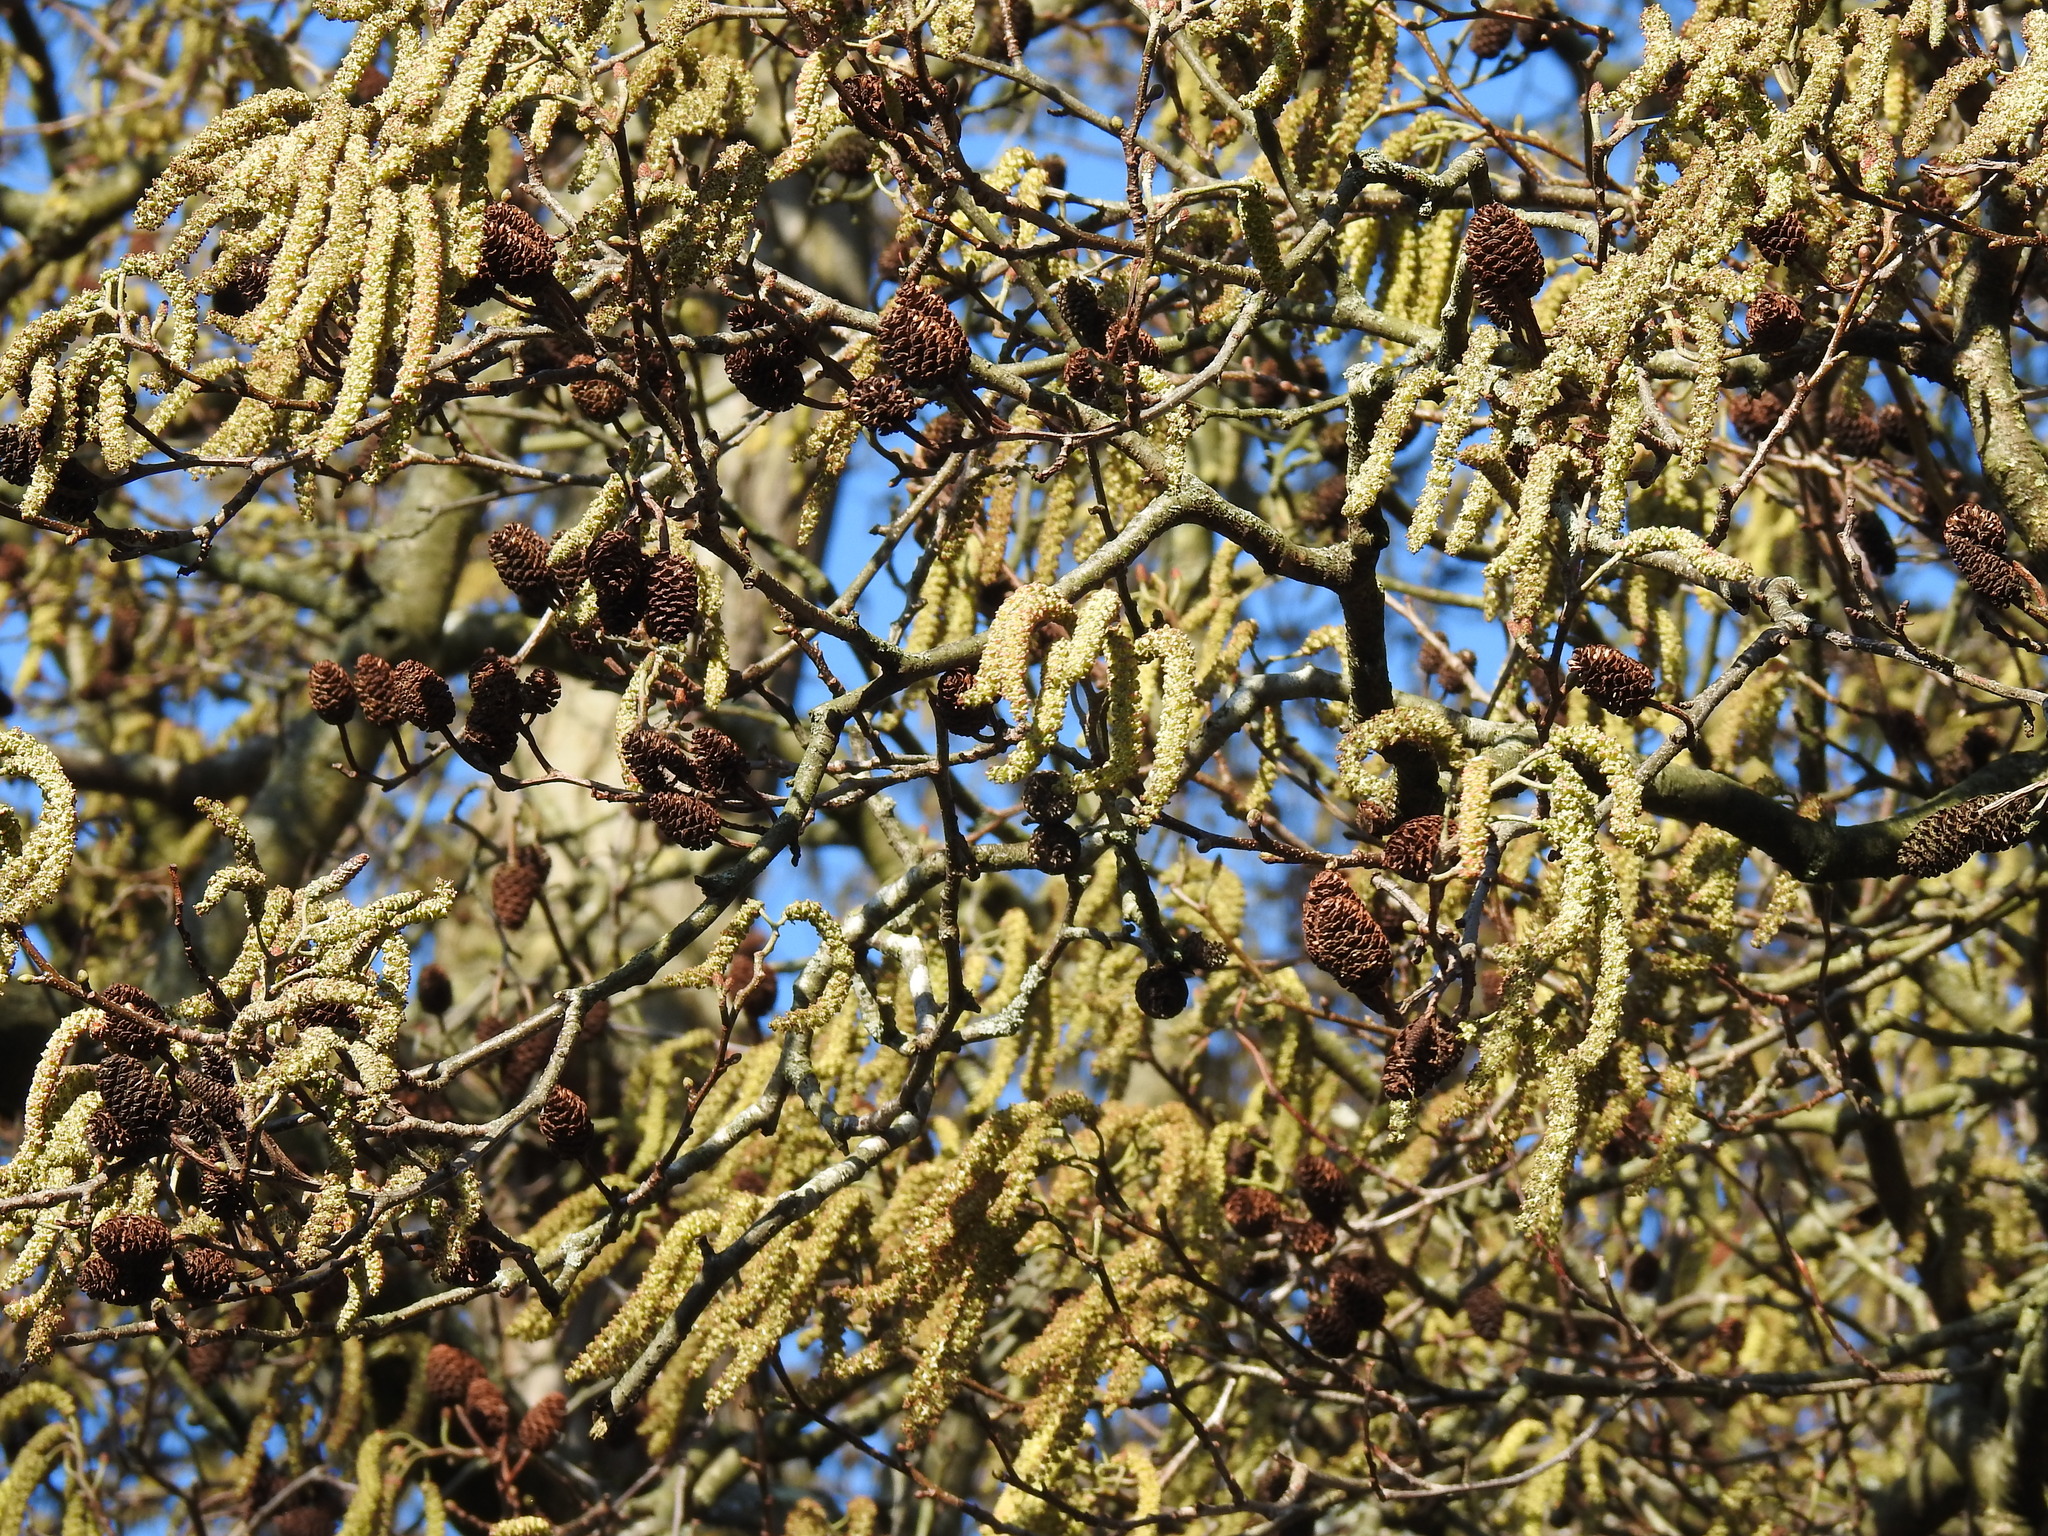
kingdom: Plantae
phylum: Tracheophyta
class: Magnoliopsida
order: Fagales
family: Betulaceae
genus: Alnus
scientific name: Alnus glutinosa
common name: Black alder
